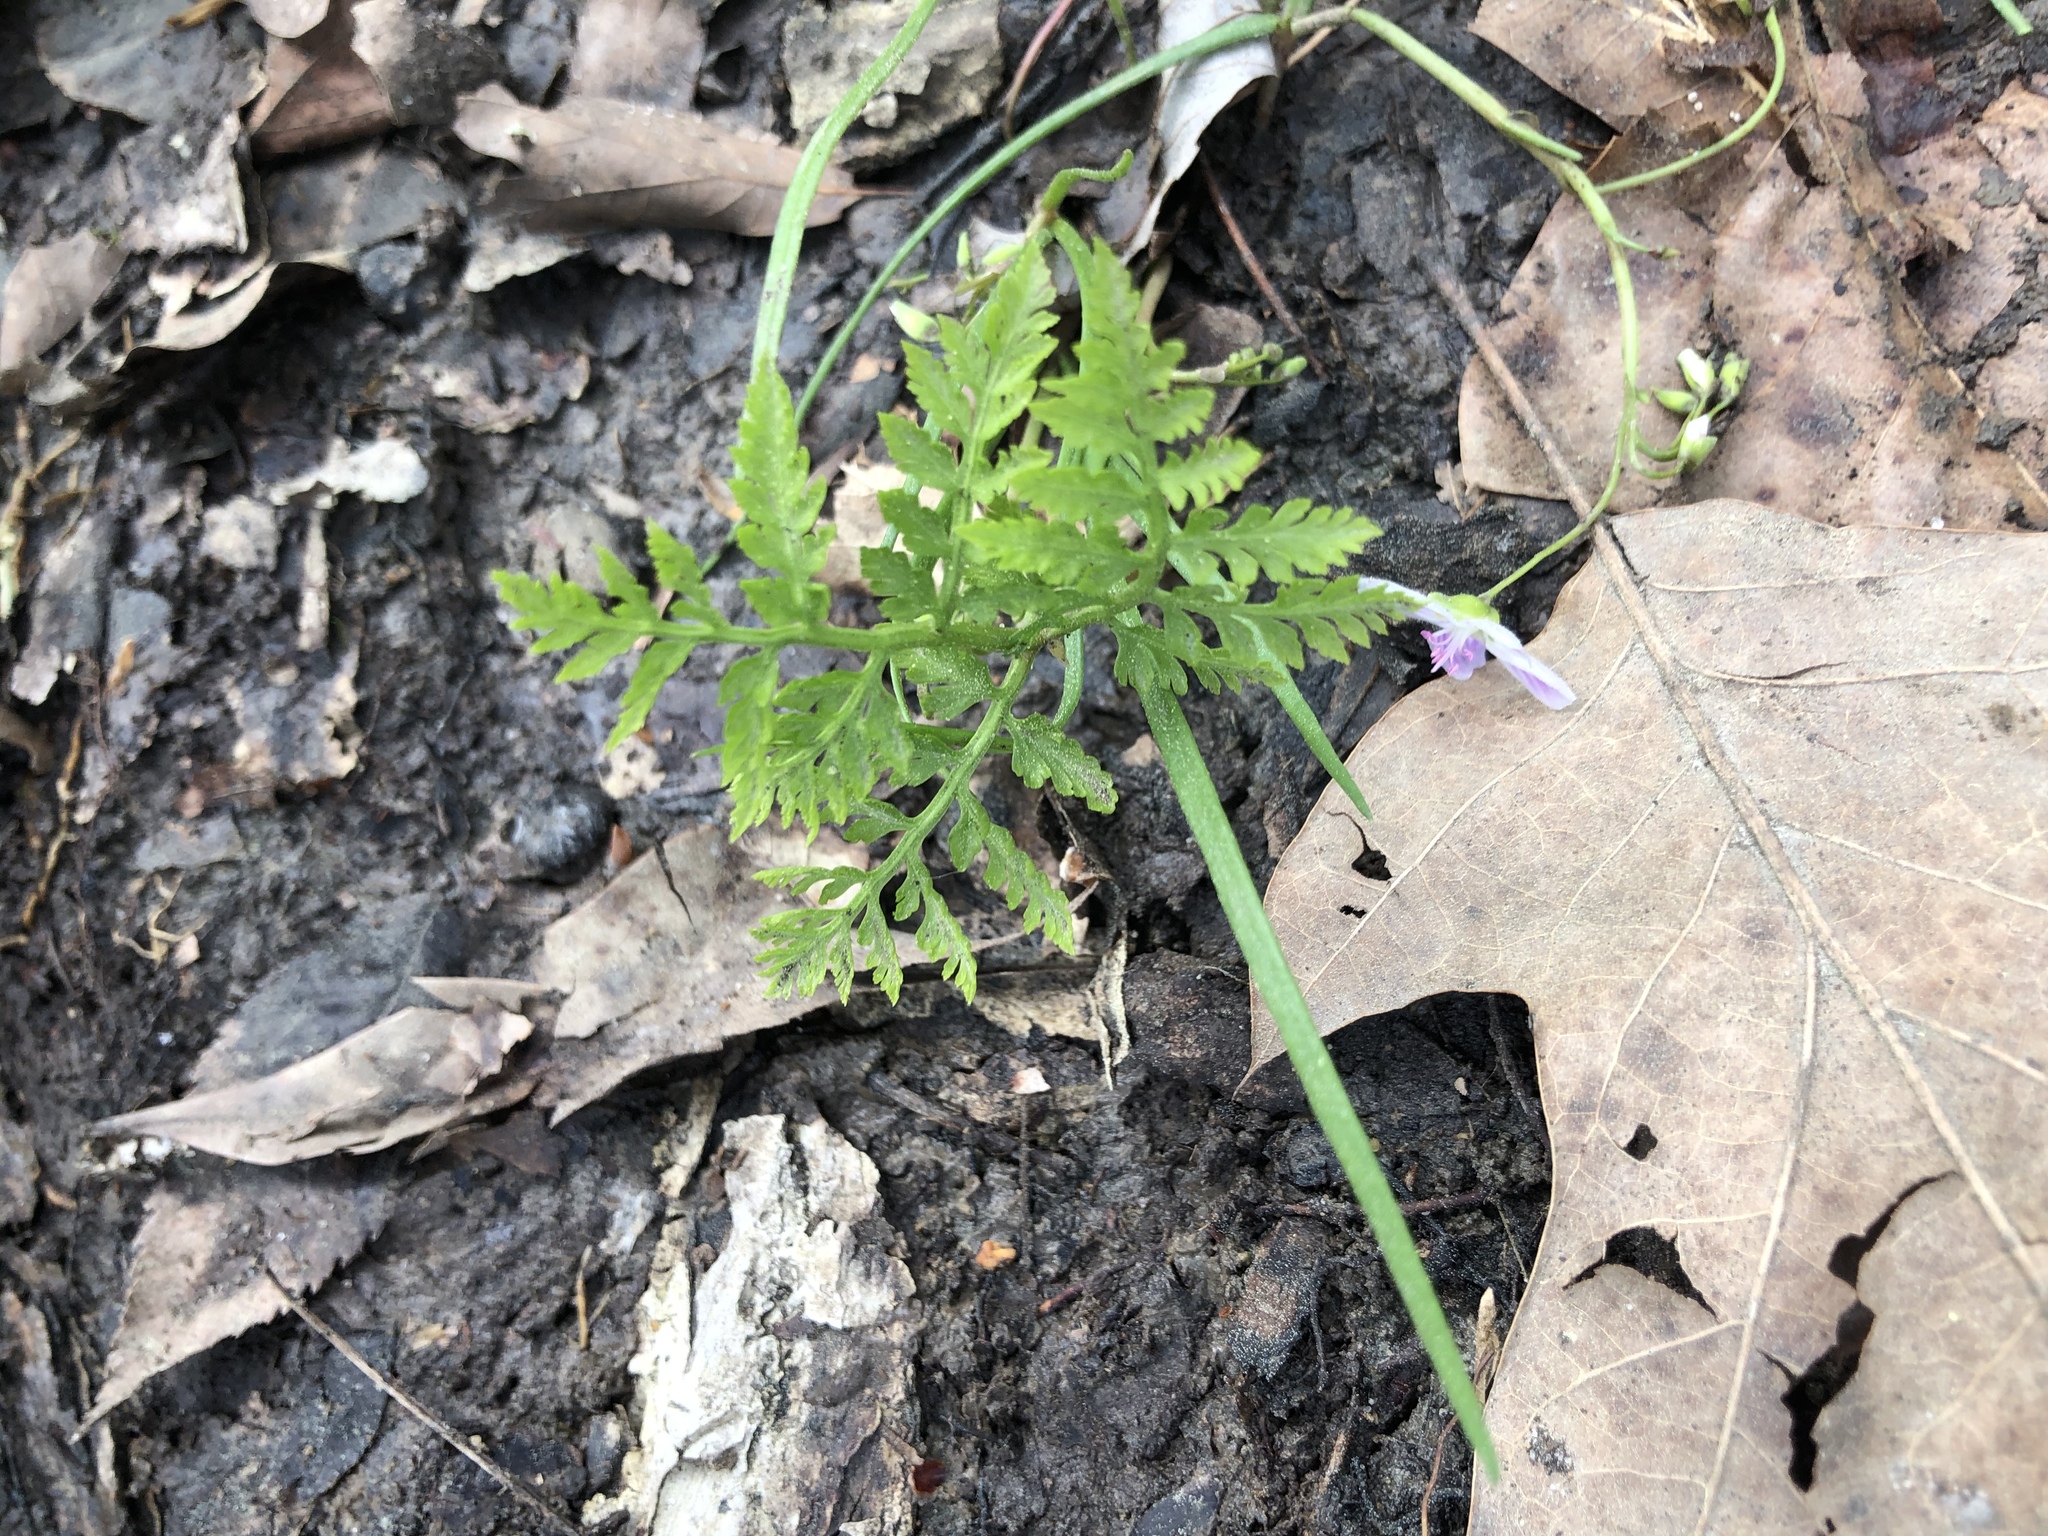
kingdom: Plantae
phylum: Tracheophyta
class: Polypodiopsida
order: Ophioglossales
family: Ophioglossaceae
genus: Botrypus
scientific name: Botrypus virginianus
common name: Common grapefern
